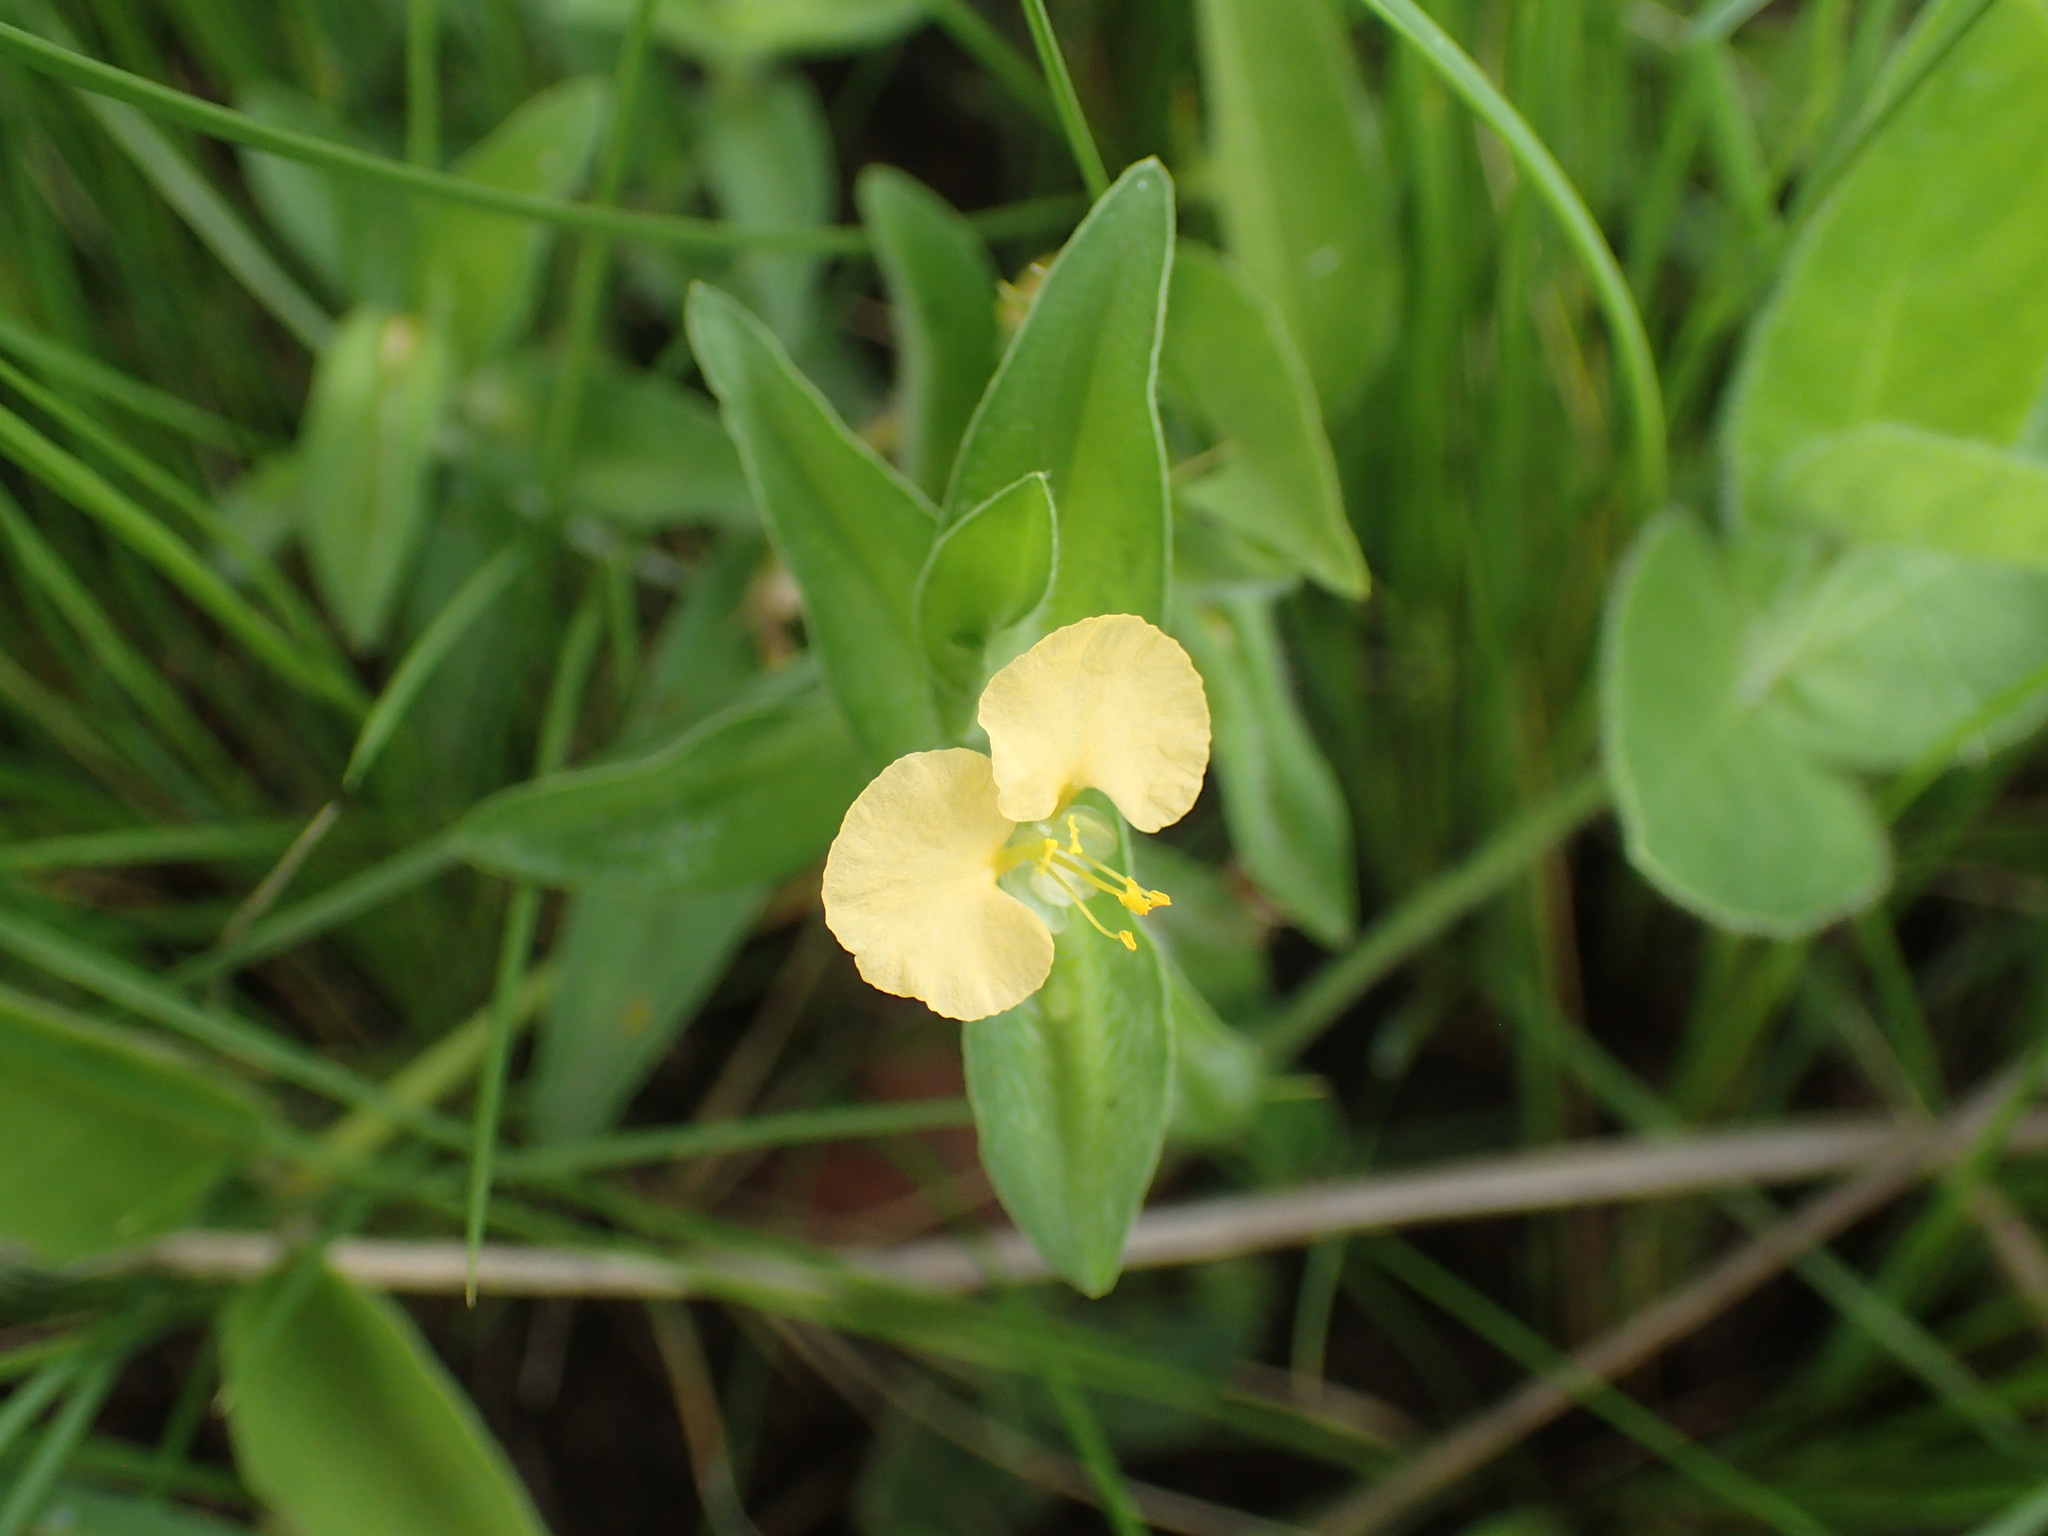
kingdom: Plantae
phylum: Tracheophyta
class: Liliopsida
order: Commelinales
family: Commelinaceae
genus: Commelina
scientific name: Commelina africana
